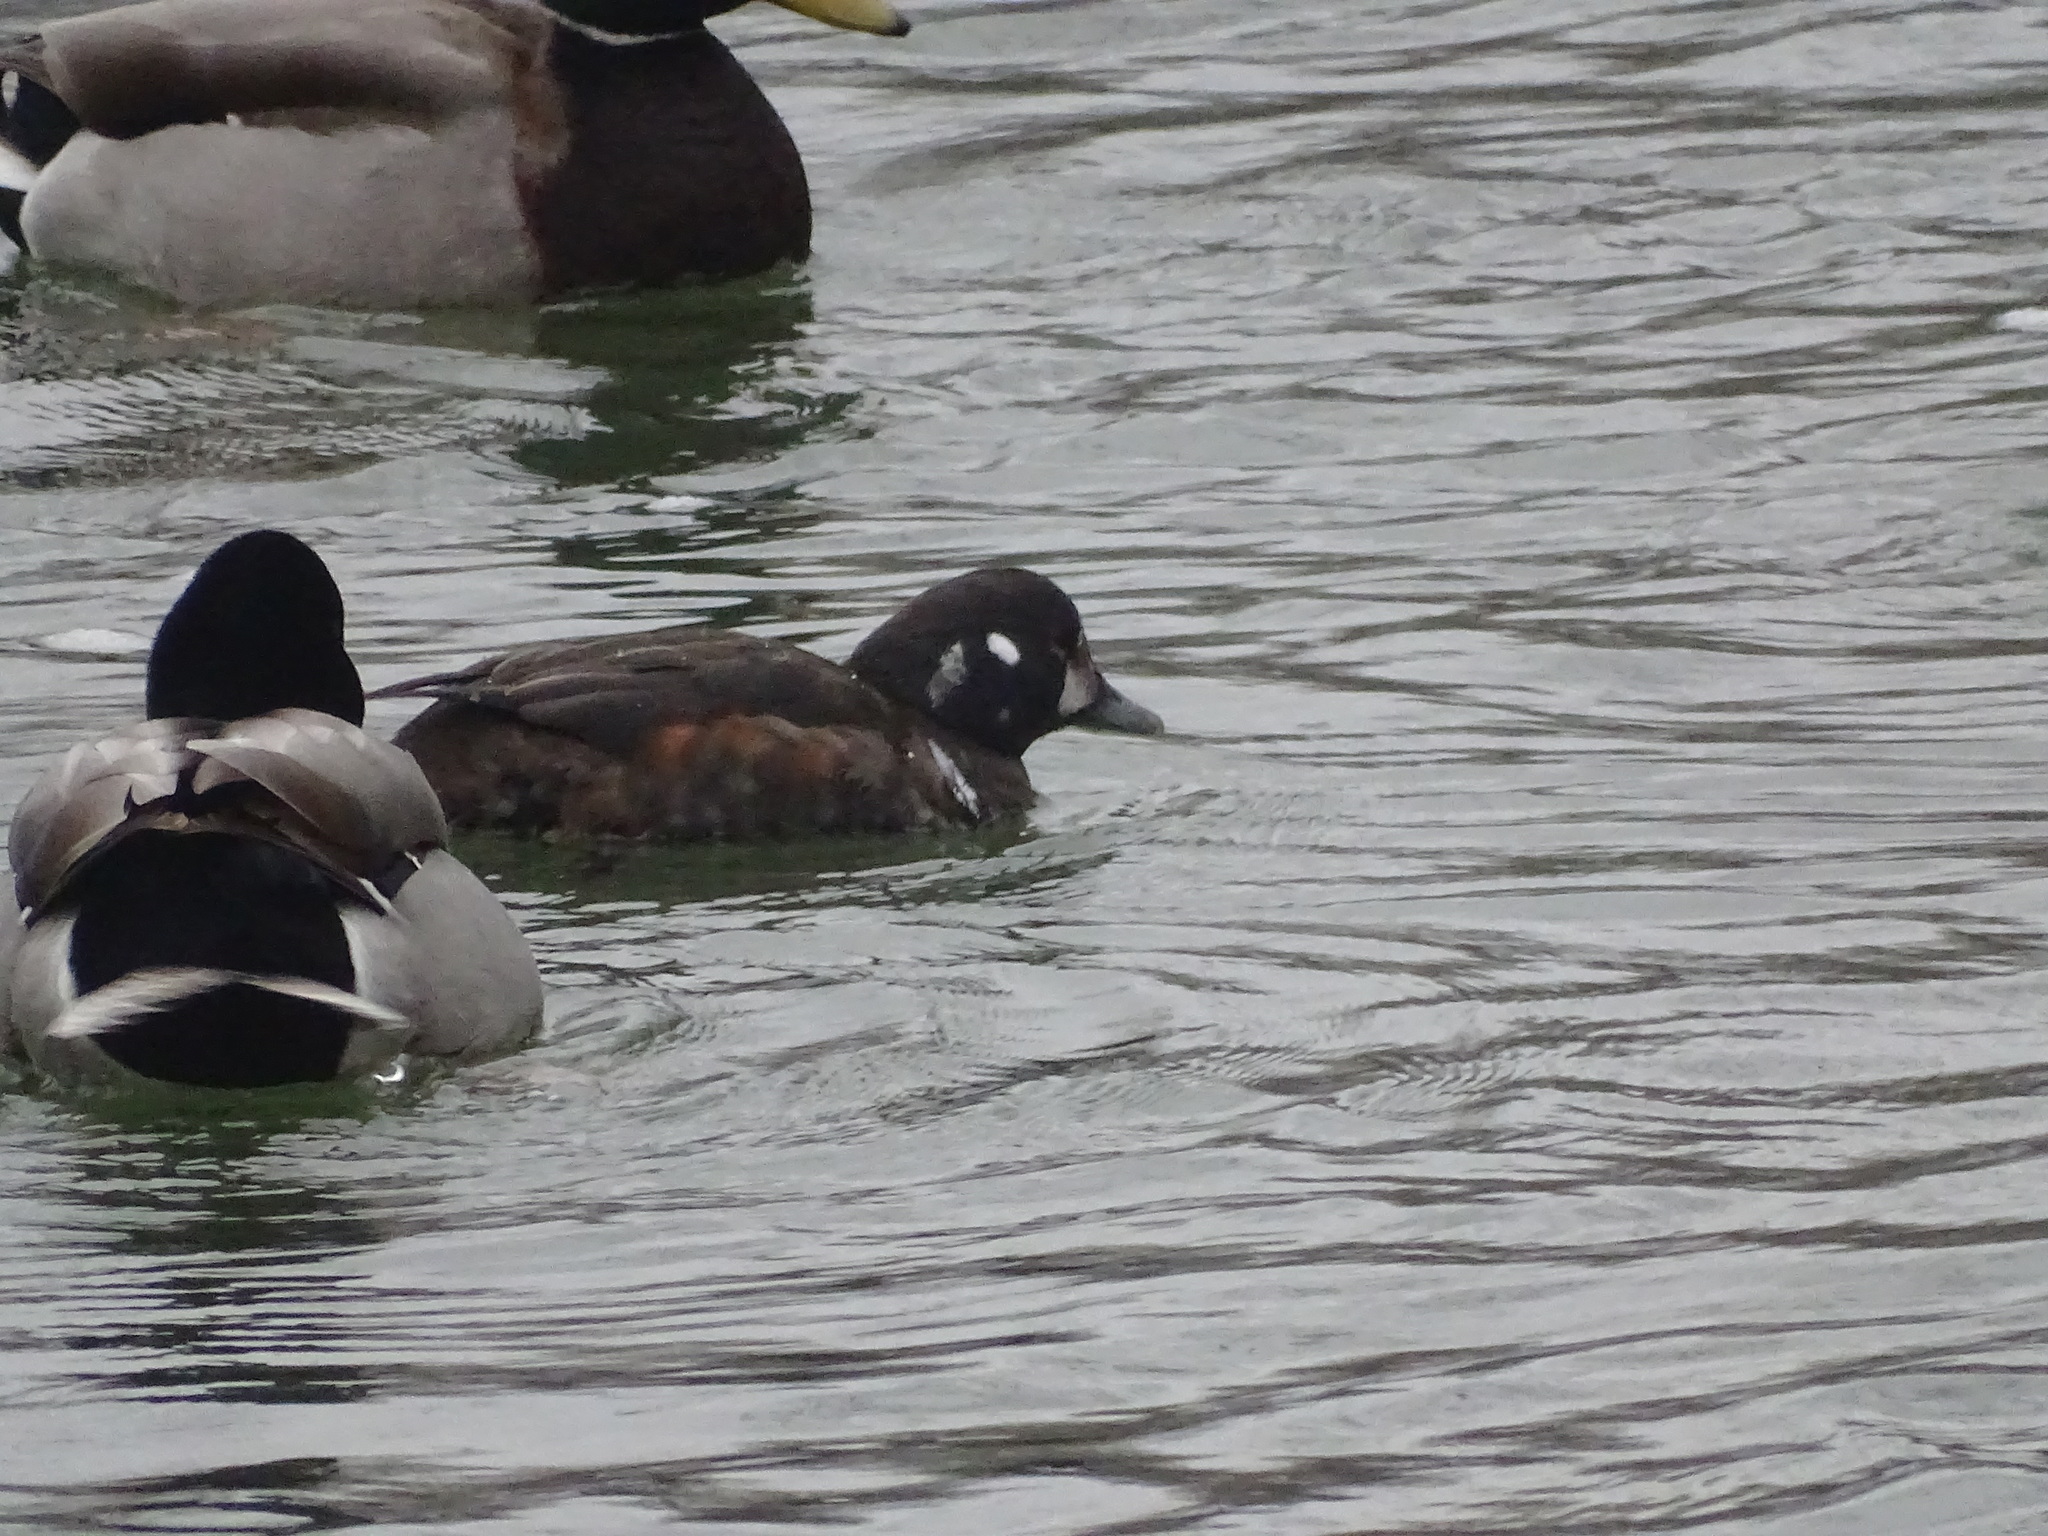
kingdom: Animalia
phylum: Chordata
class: Aves
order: Anseriformes
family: Anatidae
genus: Histrionicus
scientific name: Histrionicus histrionicus
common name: Harlequin duck
